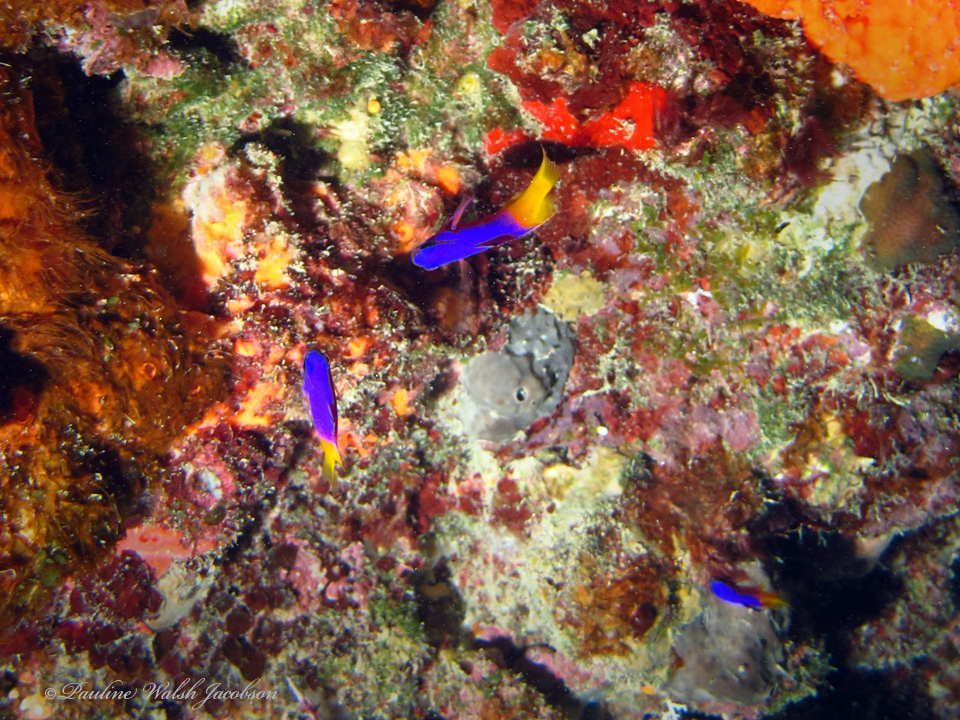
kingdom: Animalia
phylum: Chordata
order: Perciformes
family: Grammatidae
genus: Gramma
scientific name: Gramma loreto
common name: Fairy basslet
